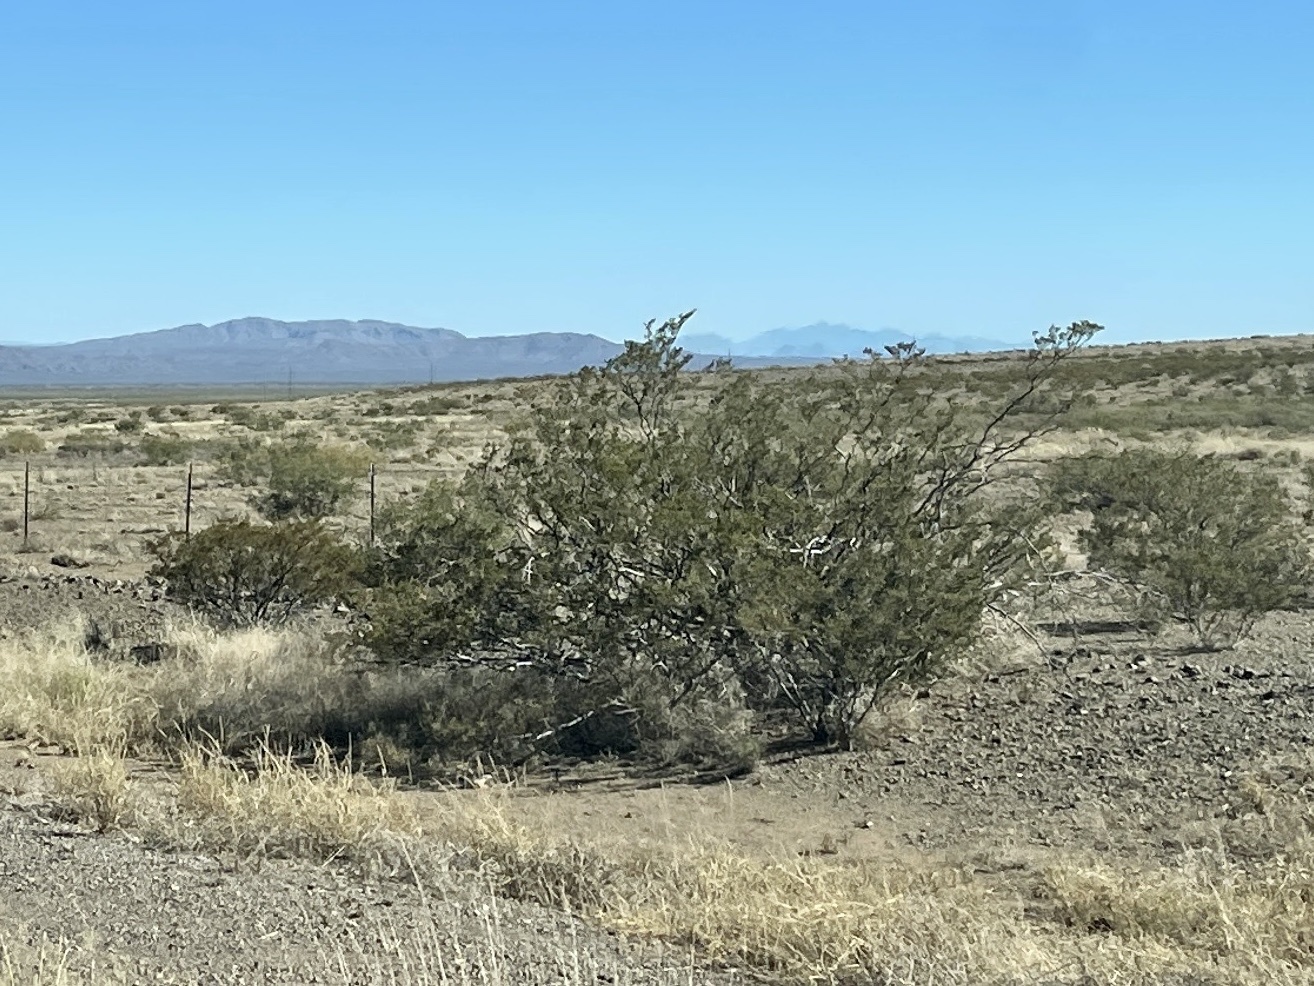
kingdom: Plantae
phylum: Tracheophyta
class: Magnoliopsida
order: Zygophyllales
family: Zygophyllaceae
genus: Larrea
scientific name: Larrea tridentata
